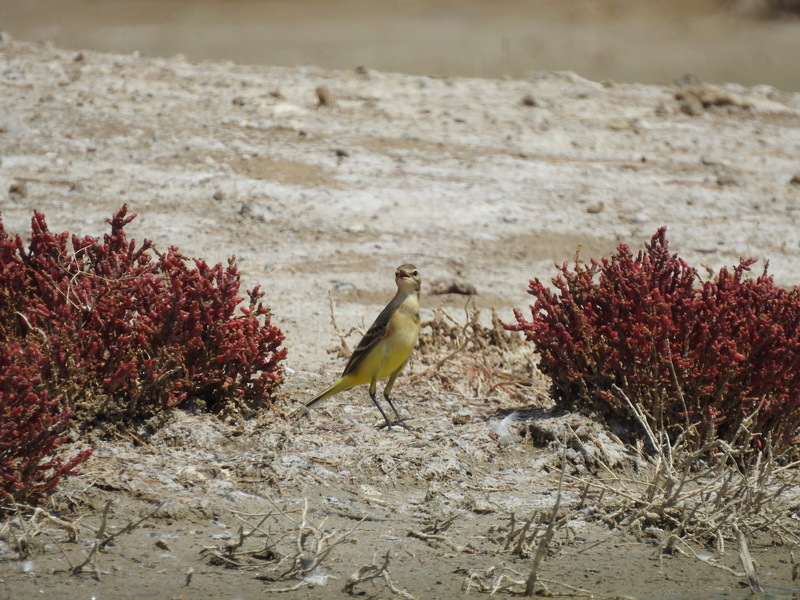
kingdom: Animalia
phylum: Chordata
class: Aves
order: Passeriformes
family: Motacillidae
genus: Motacilla
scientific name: Motacilla flava
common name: Western yellow wagtail
